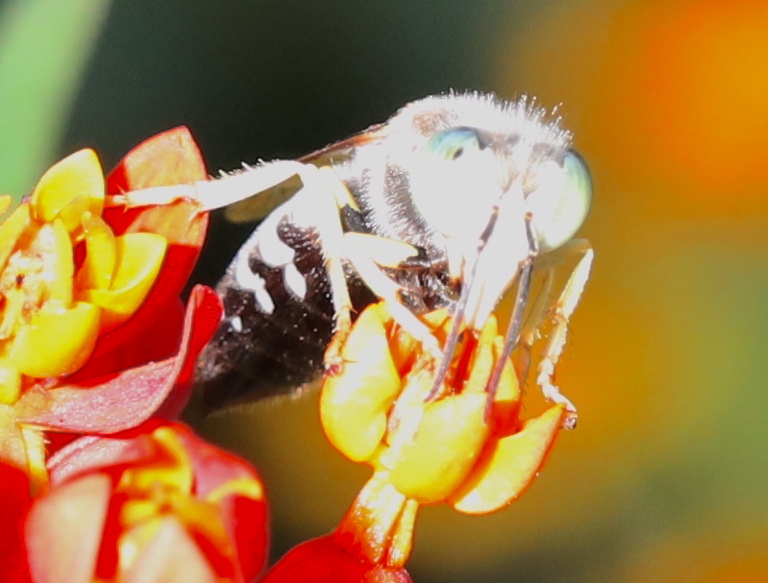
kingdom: Animalia
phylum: Arthropoda
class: Insecta
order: Hymenoptera
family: Crabronidae
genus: Bembix
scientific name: Bembix americana
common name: American sand wasp
